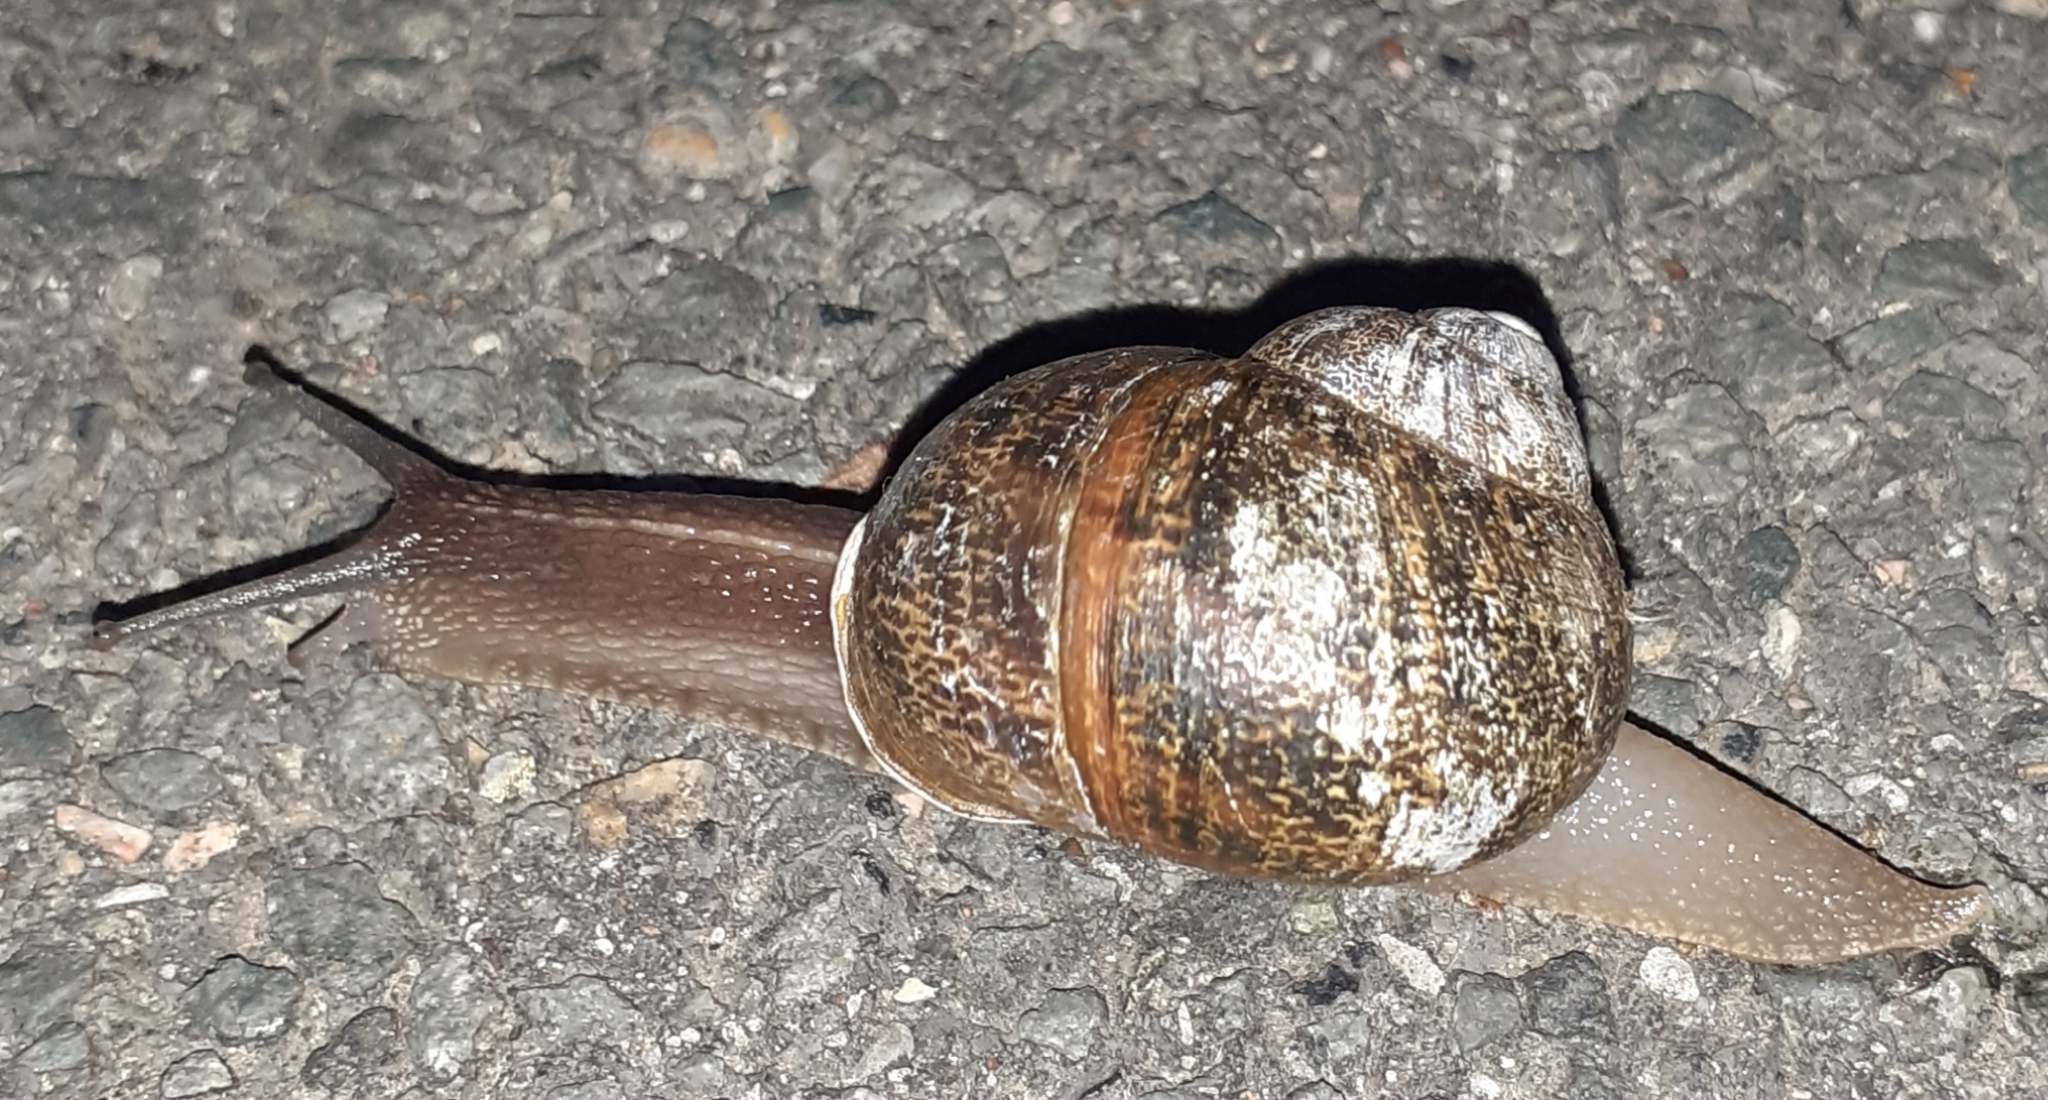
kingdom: Animalia
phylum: Mollusca
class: Gastropoda
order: Stylommatophora
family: Helicidae
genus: Cornu
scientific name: Cornu aspersum
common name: Brown garden snail
